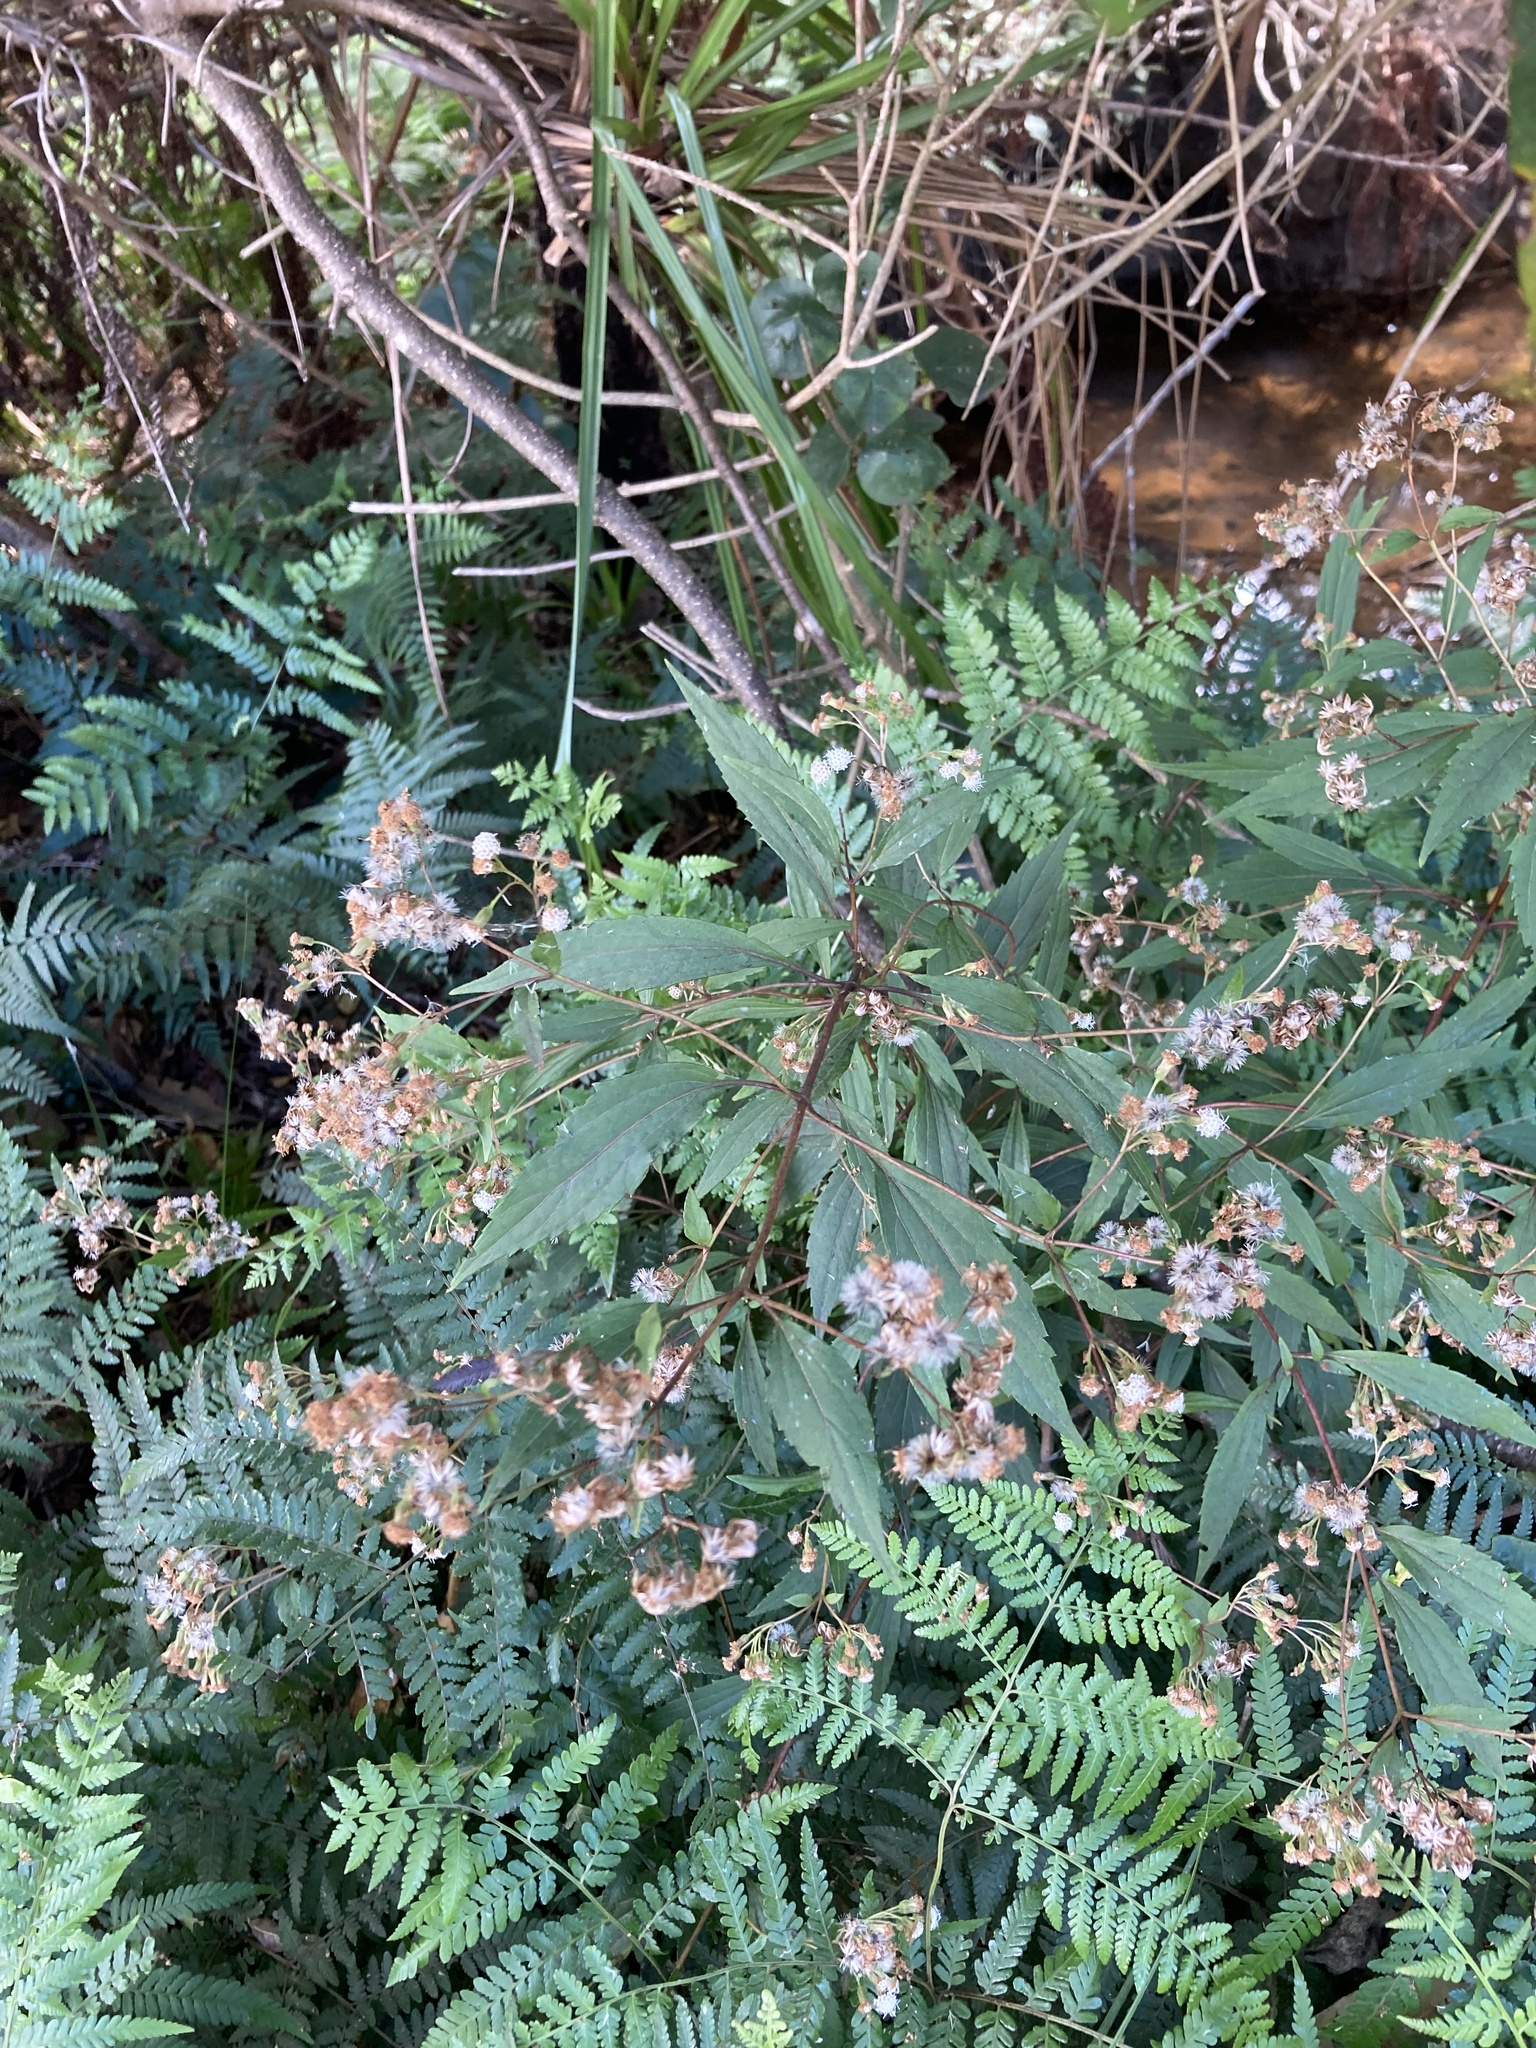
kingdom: Plantae
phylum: Tracheophyta
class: Magnoliopsida
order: Asterales
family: Asteraceae
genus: Ageratina
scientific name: Ageratina riparia
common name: Creeping croftonweed
